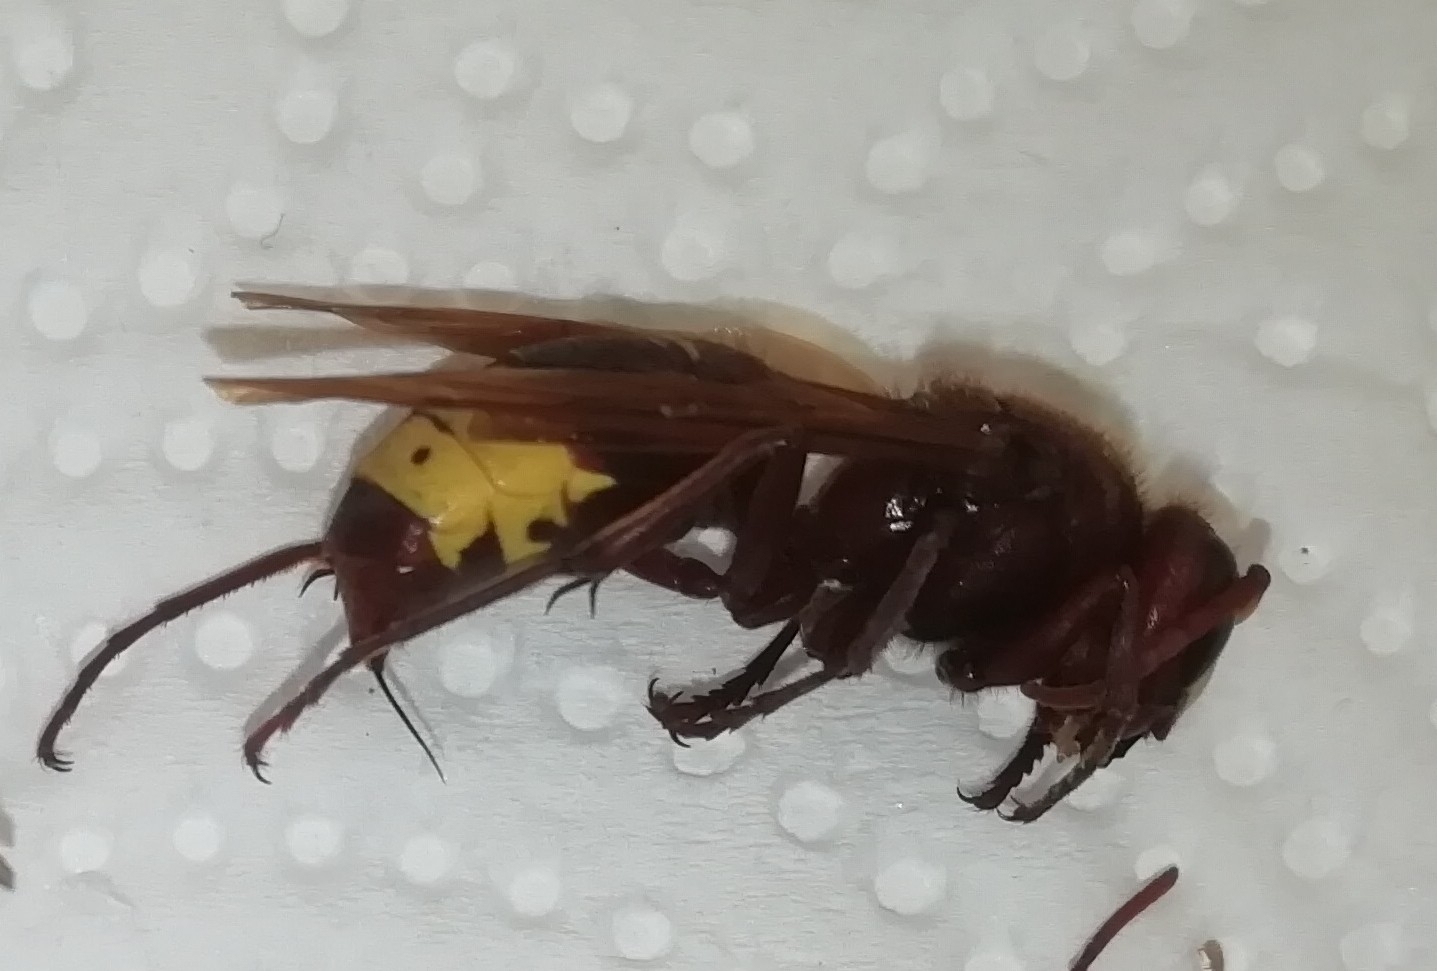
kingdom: Animalia
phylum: Arthropoda
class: Insecta
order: Hymenoptera
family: Vespidae
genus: Vespa
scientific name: Vespa orientalis
